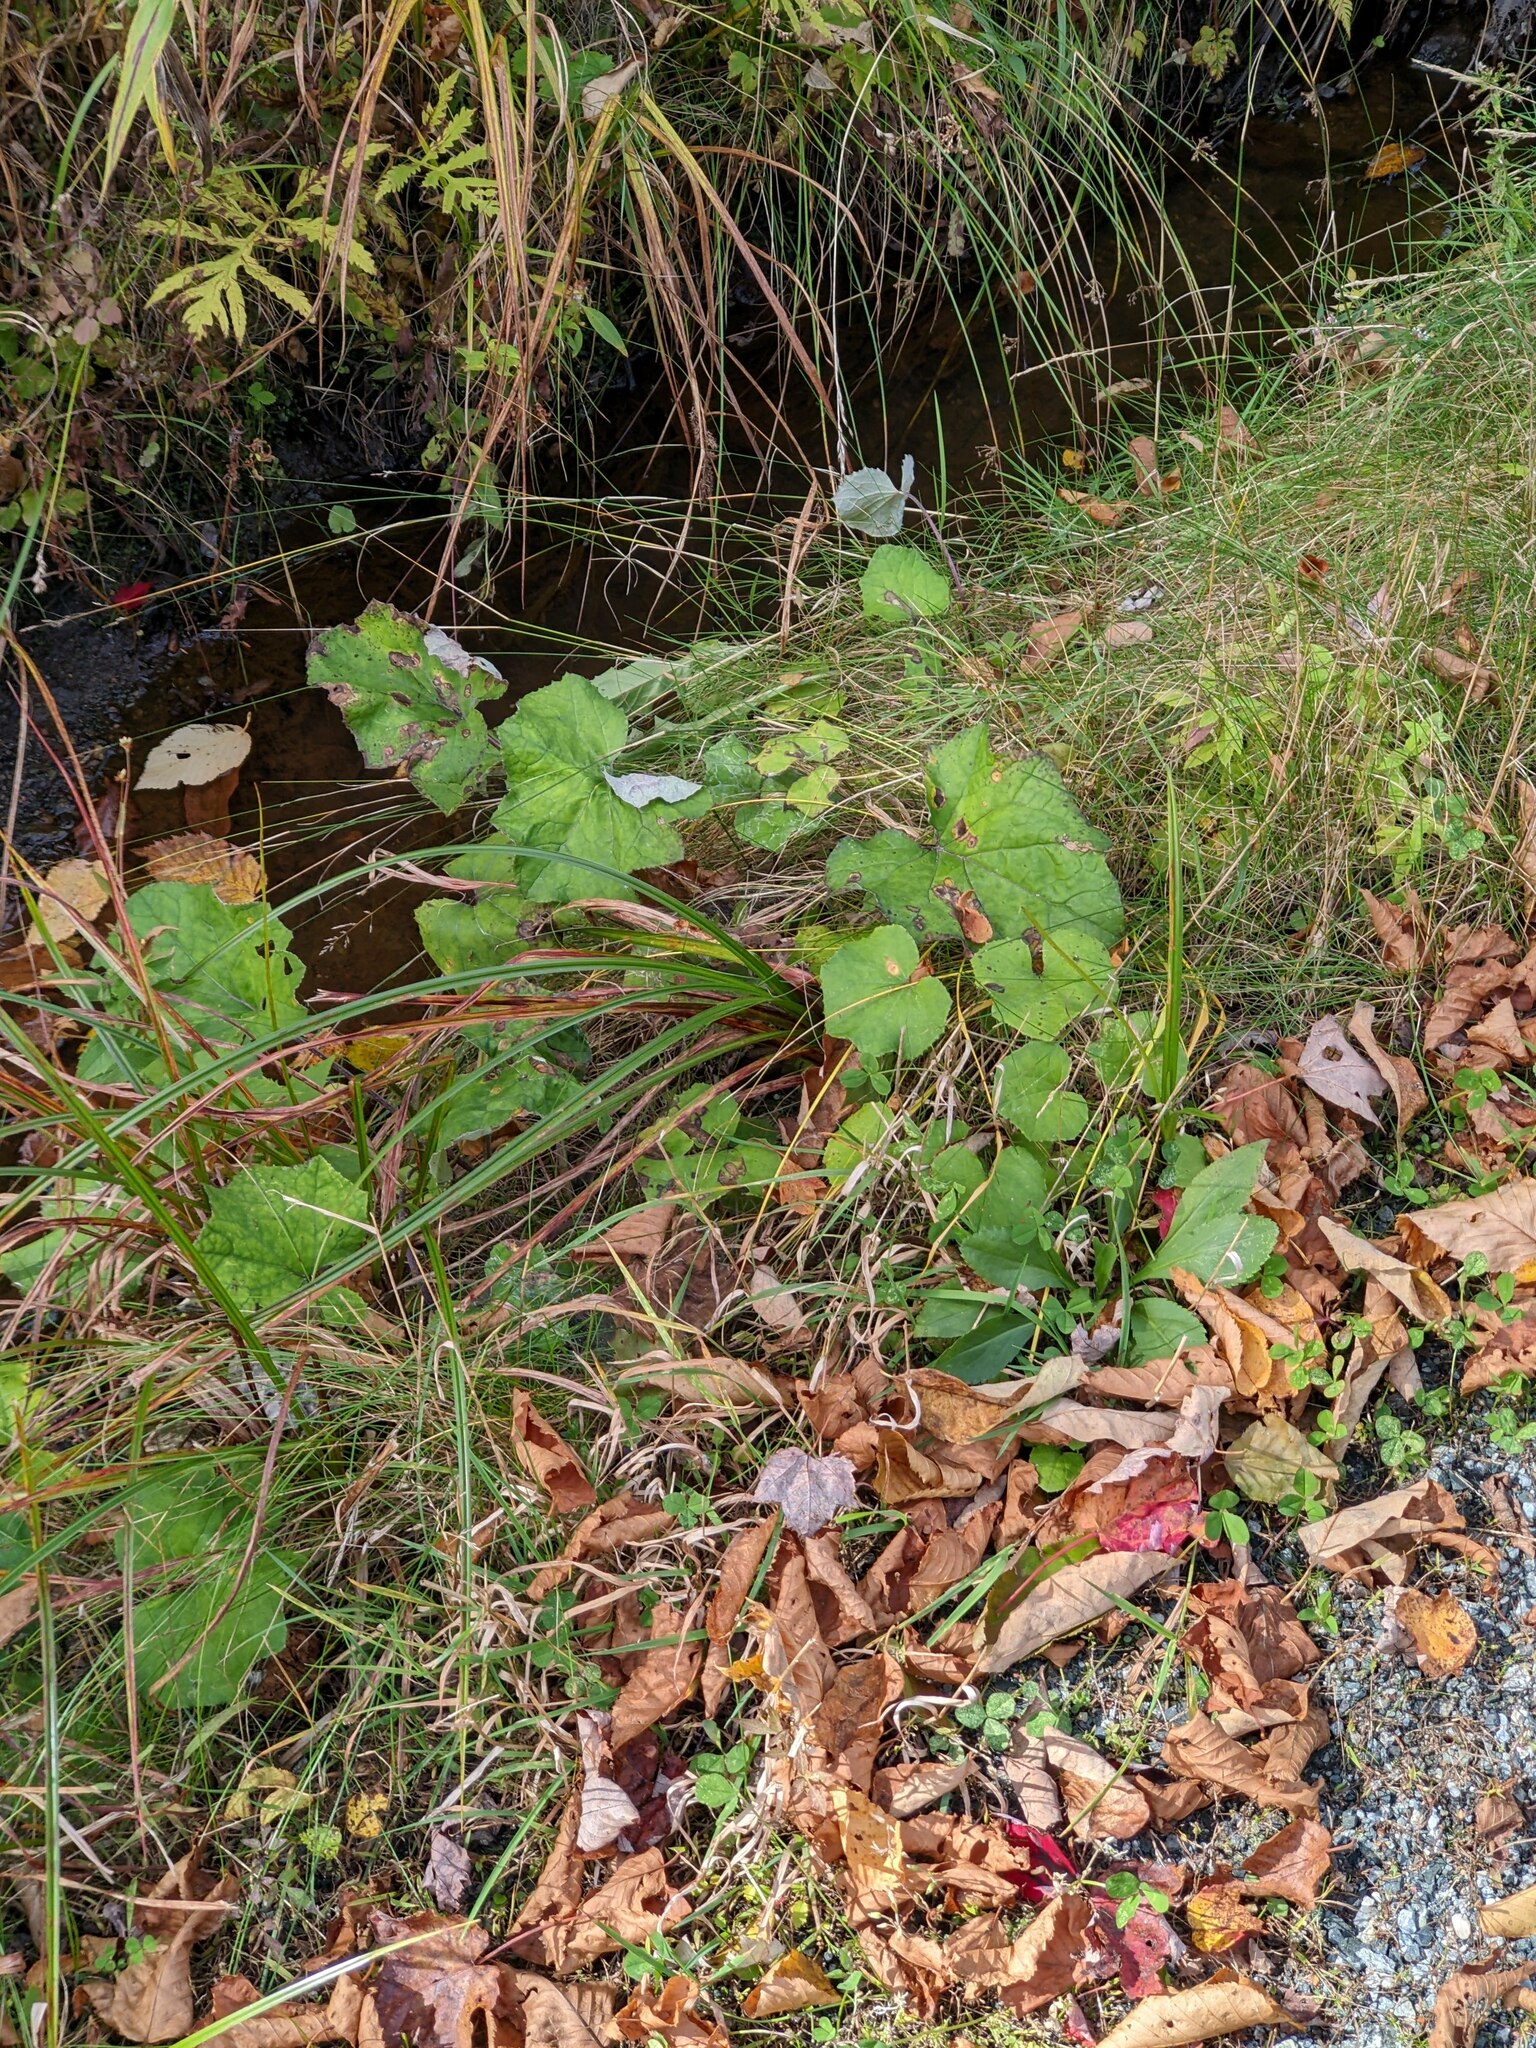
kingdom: Plantae
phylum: Tracheophyta
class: Magnoliopsida
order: Asterales
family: Asteraceae
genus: Tussilago
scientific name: Tussilago farfara
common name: Coltsfoot
